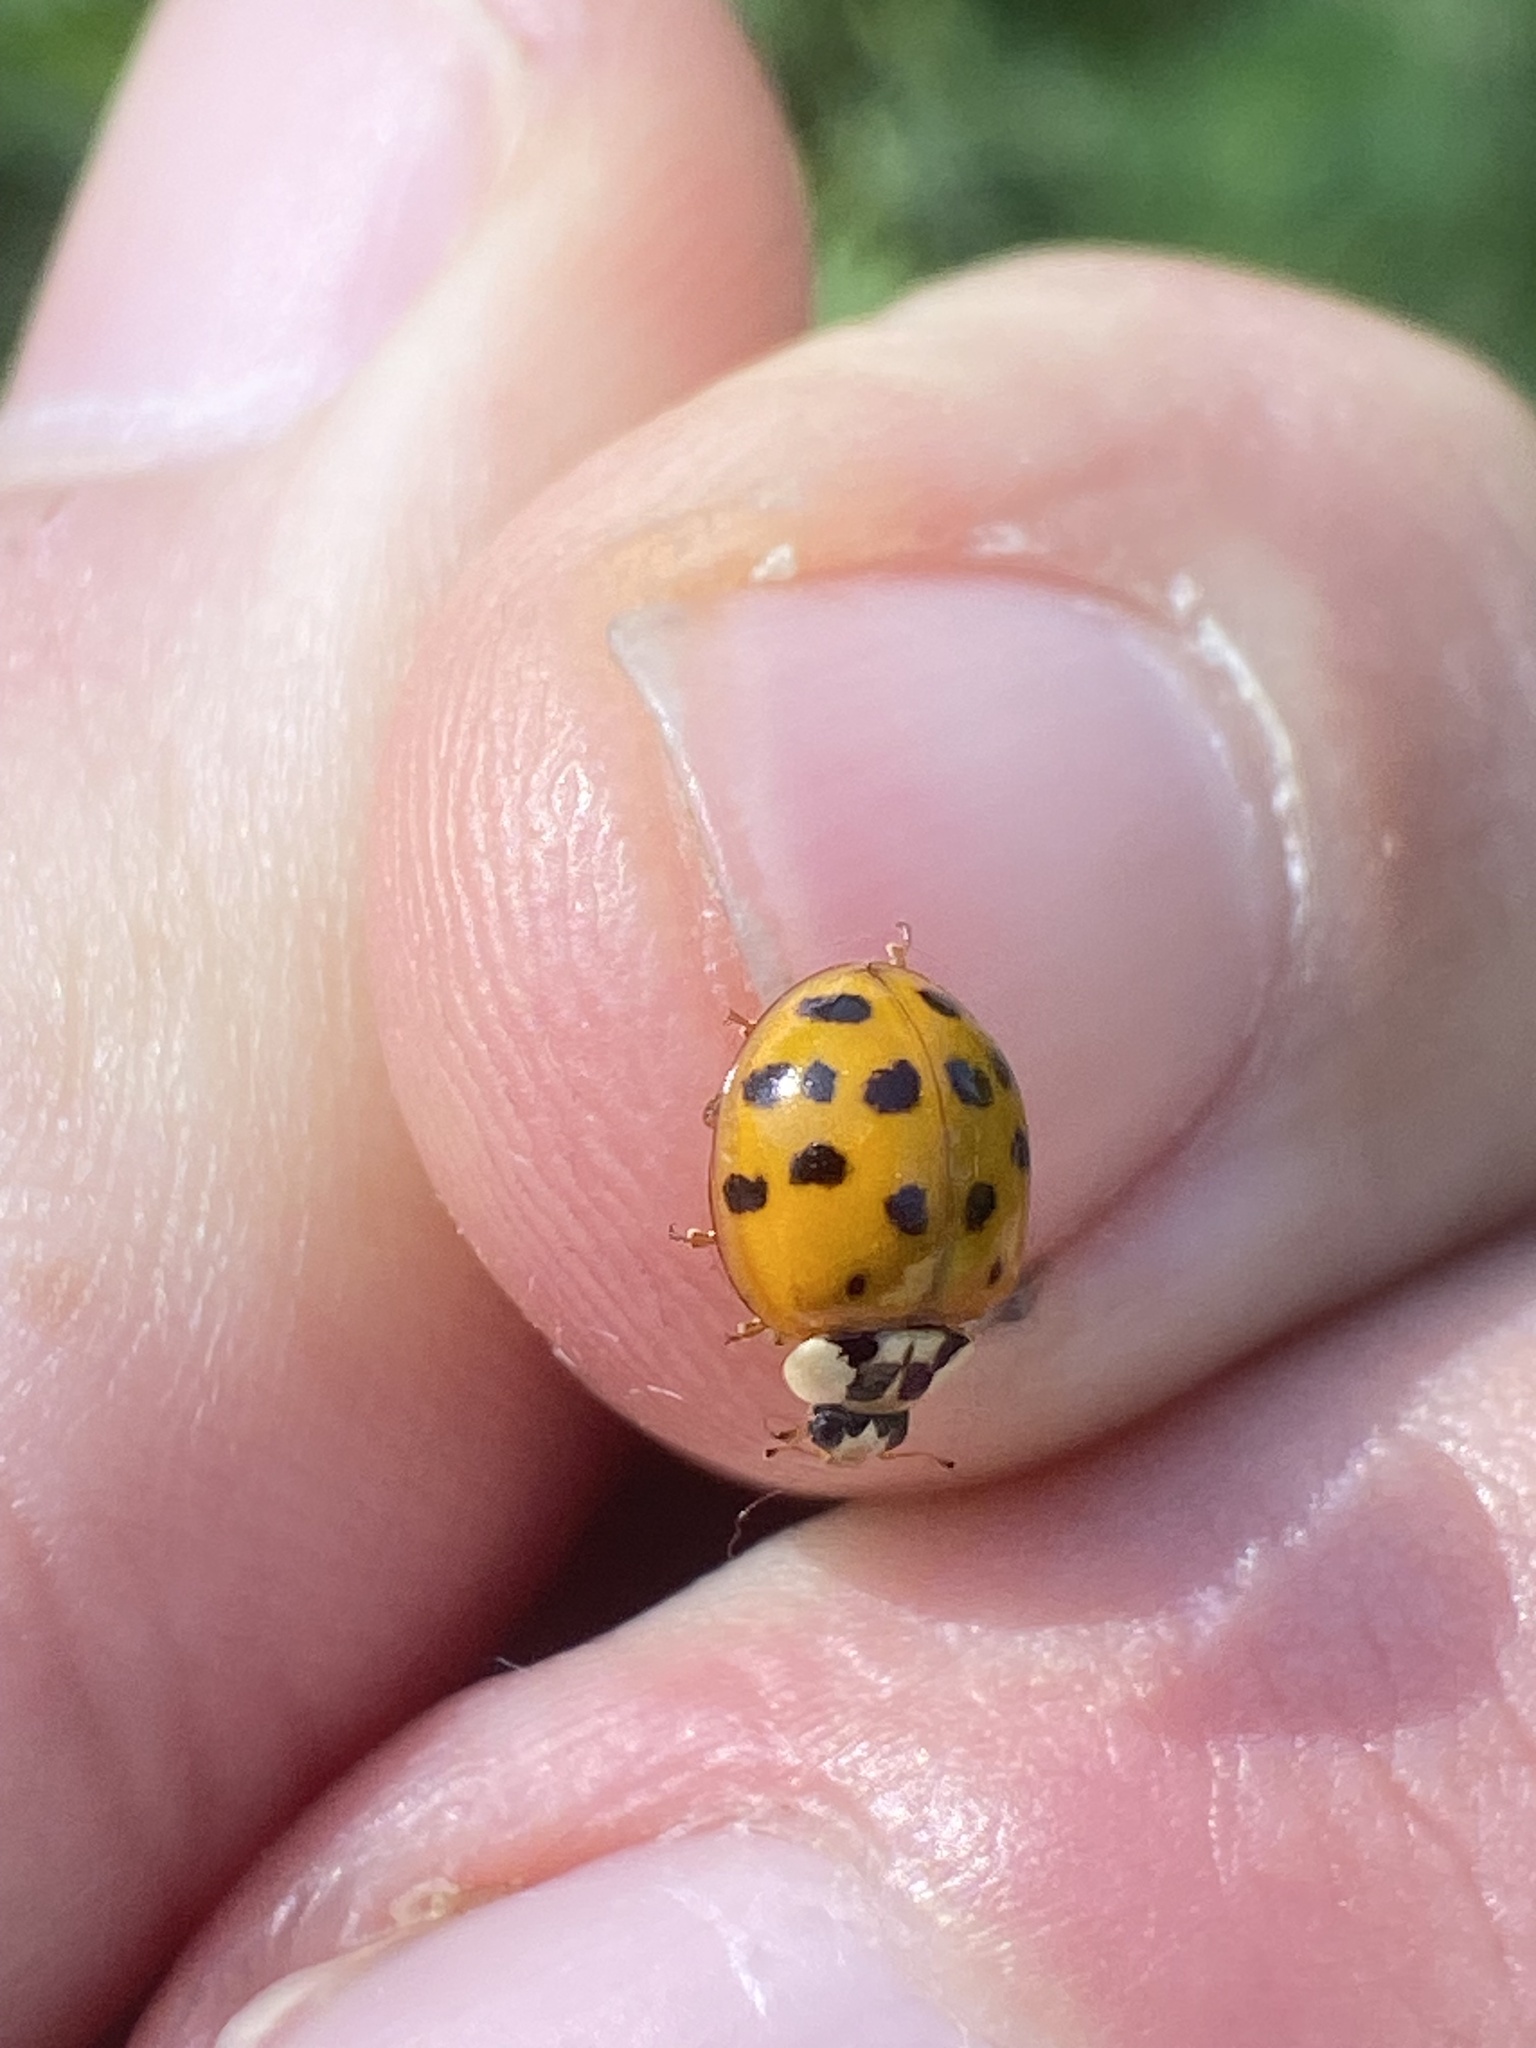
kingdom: Animalia
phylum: Arthropoda
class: Insecta
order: Coleoptera
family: Coccinellidae
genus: Harmonia
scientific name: Harmonia axyridis
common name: Harlequin ladybird
